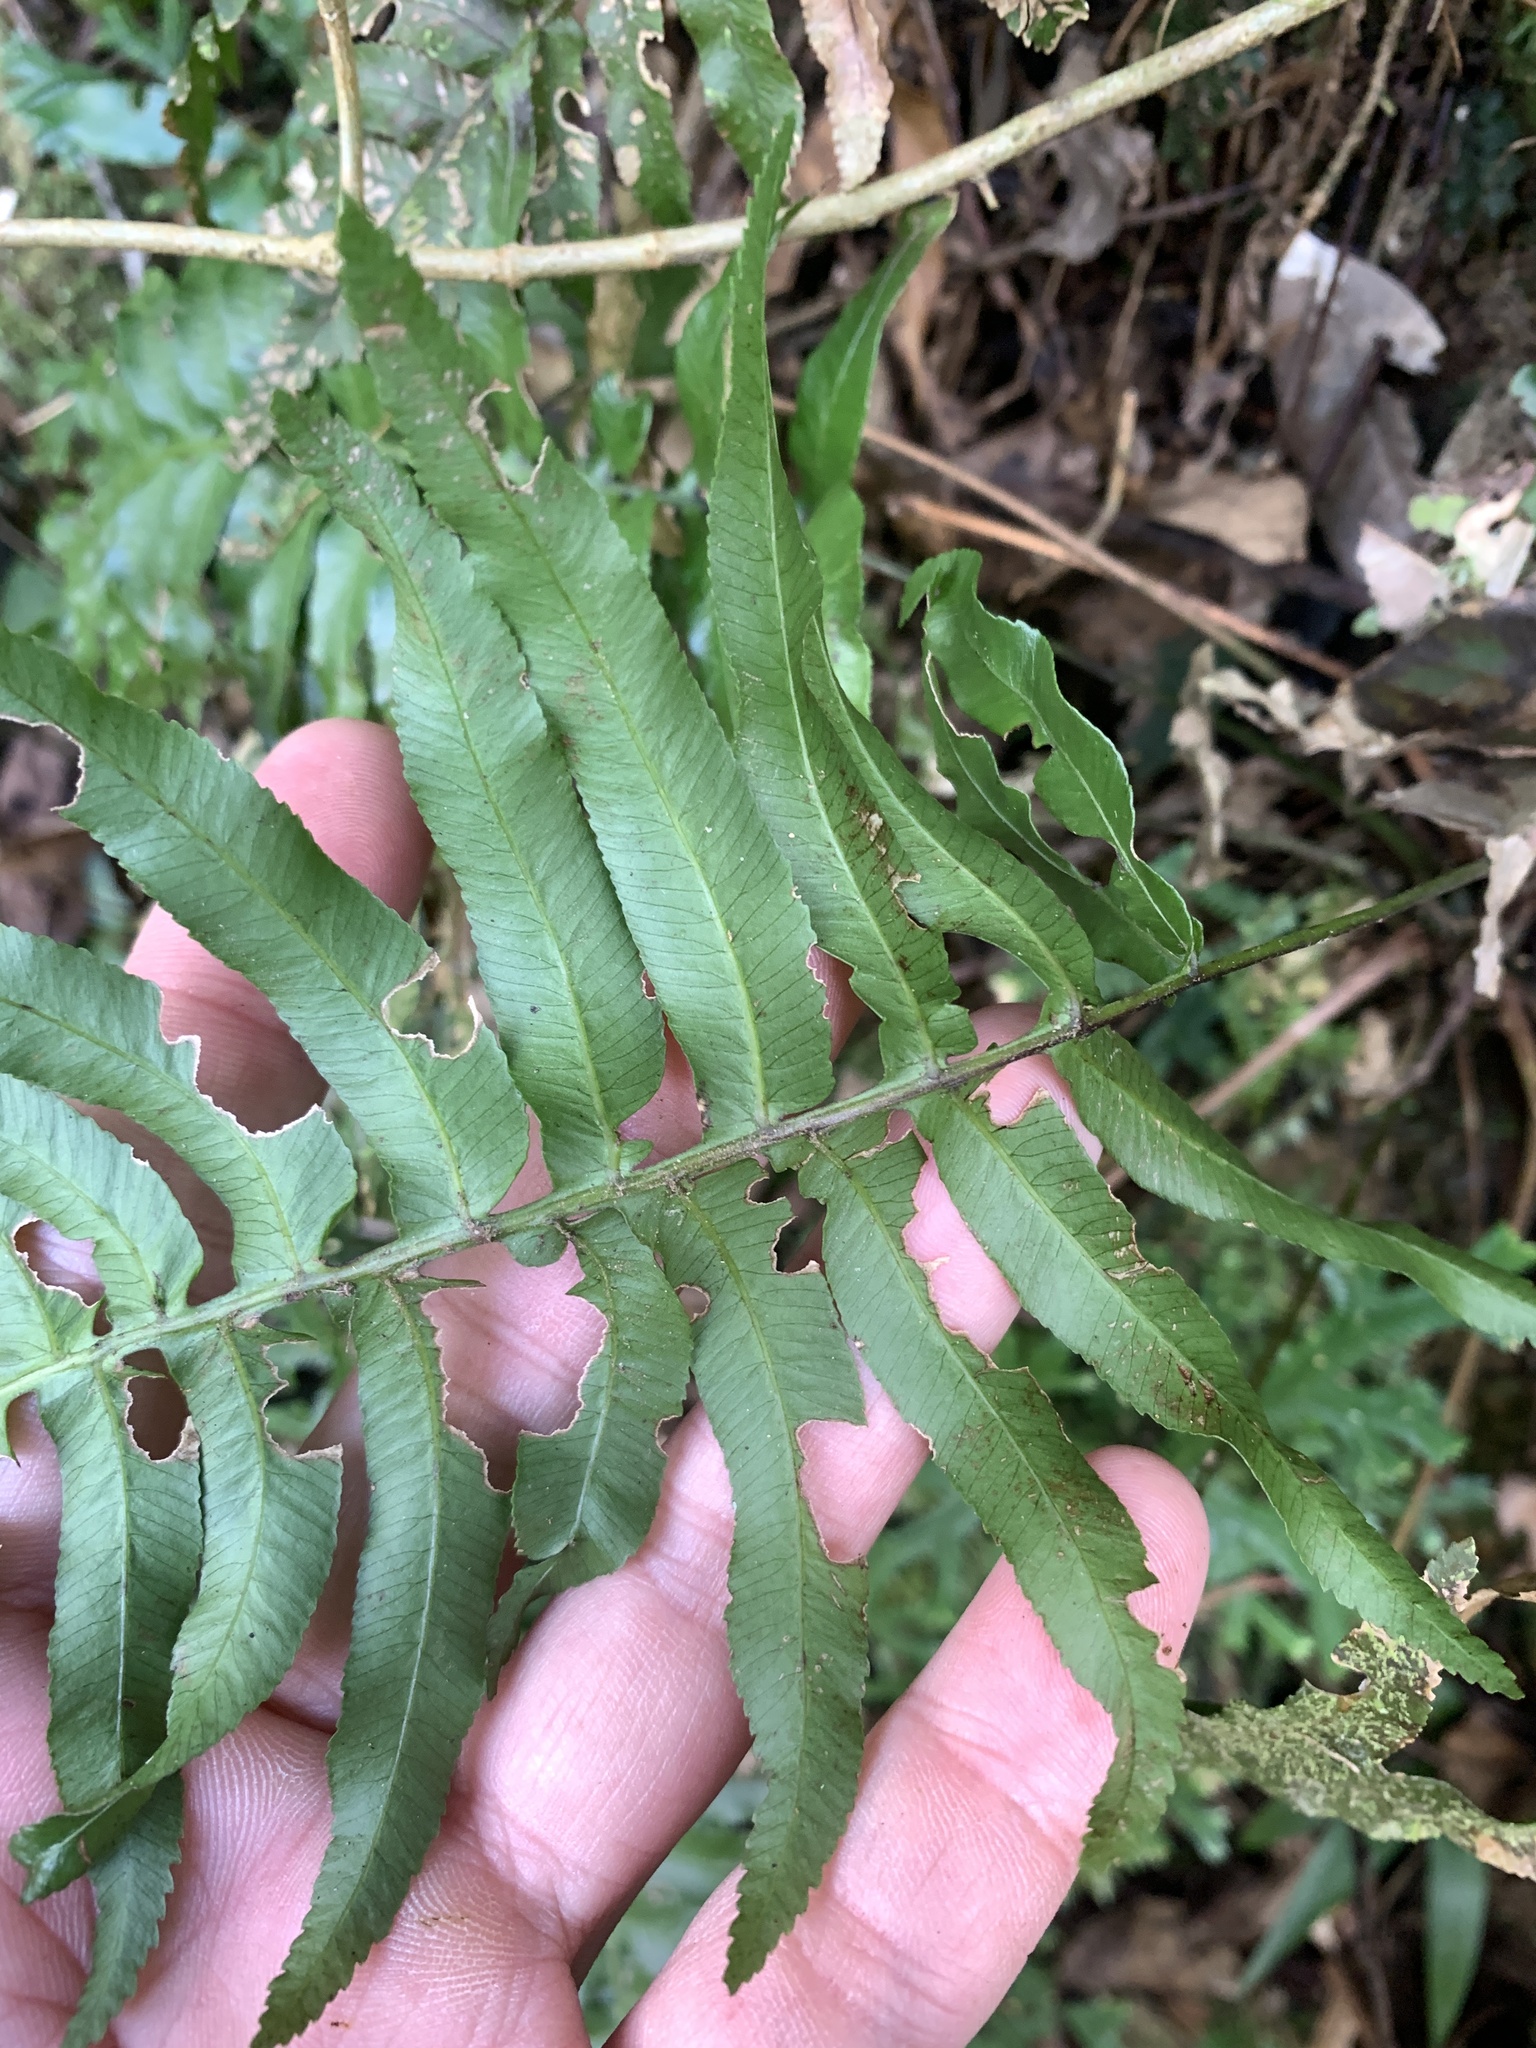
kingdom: Plantae
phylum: Tracheophyta
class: Polypodiopsida
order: Cyatheales
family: Plagiogyriaceae
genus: Plagiogyria
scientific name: Plagiogyria adnata
